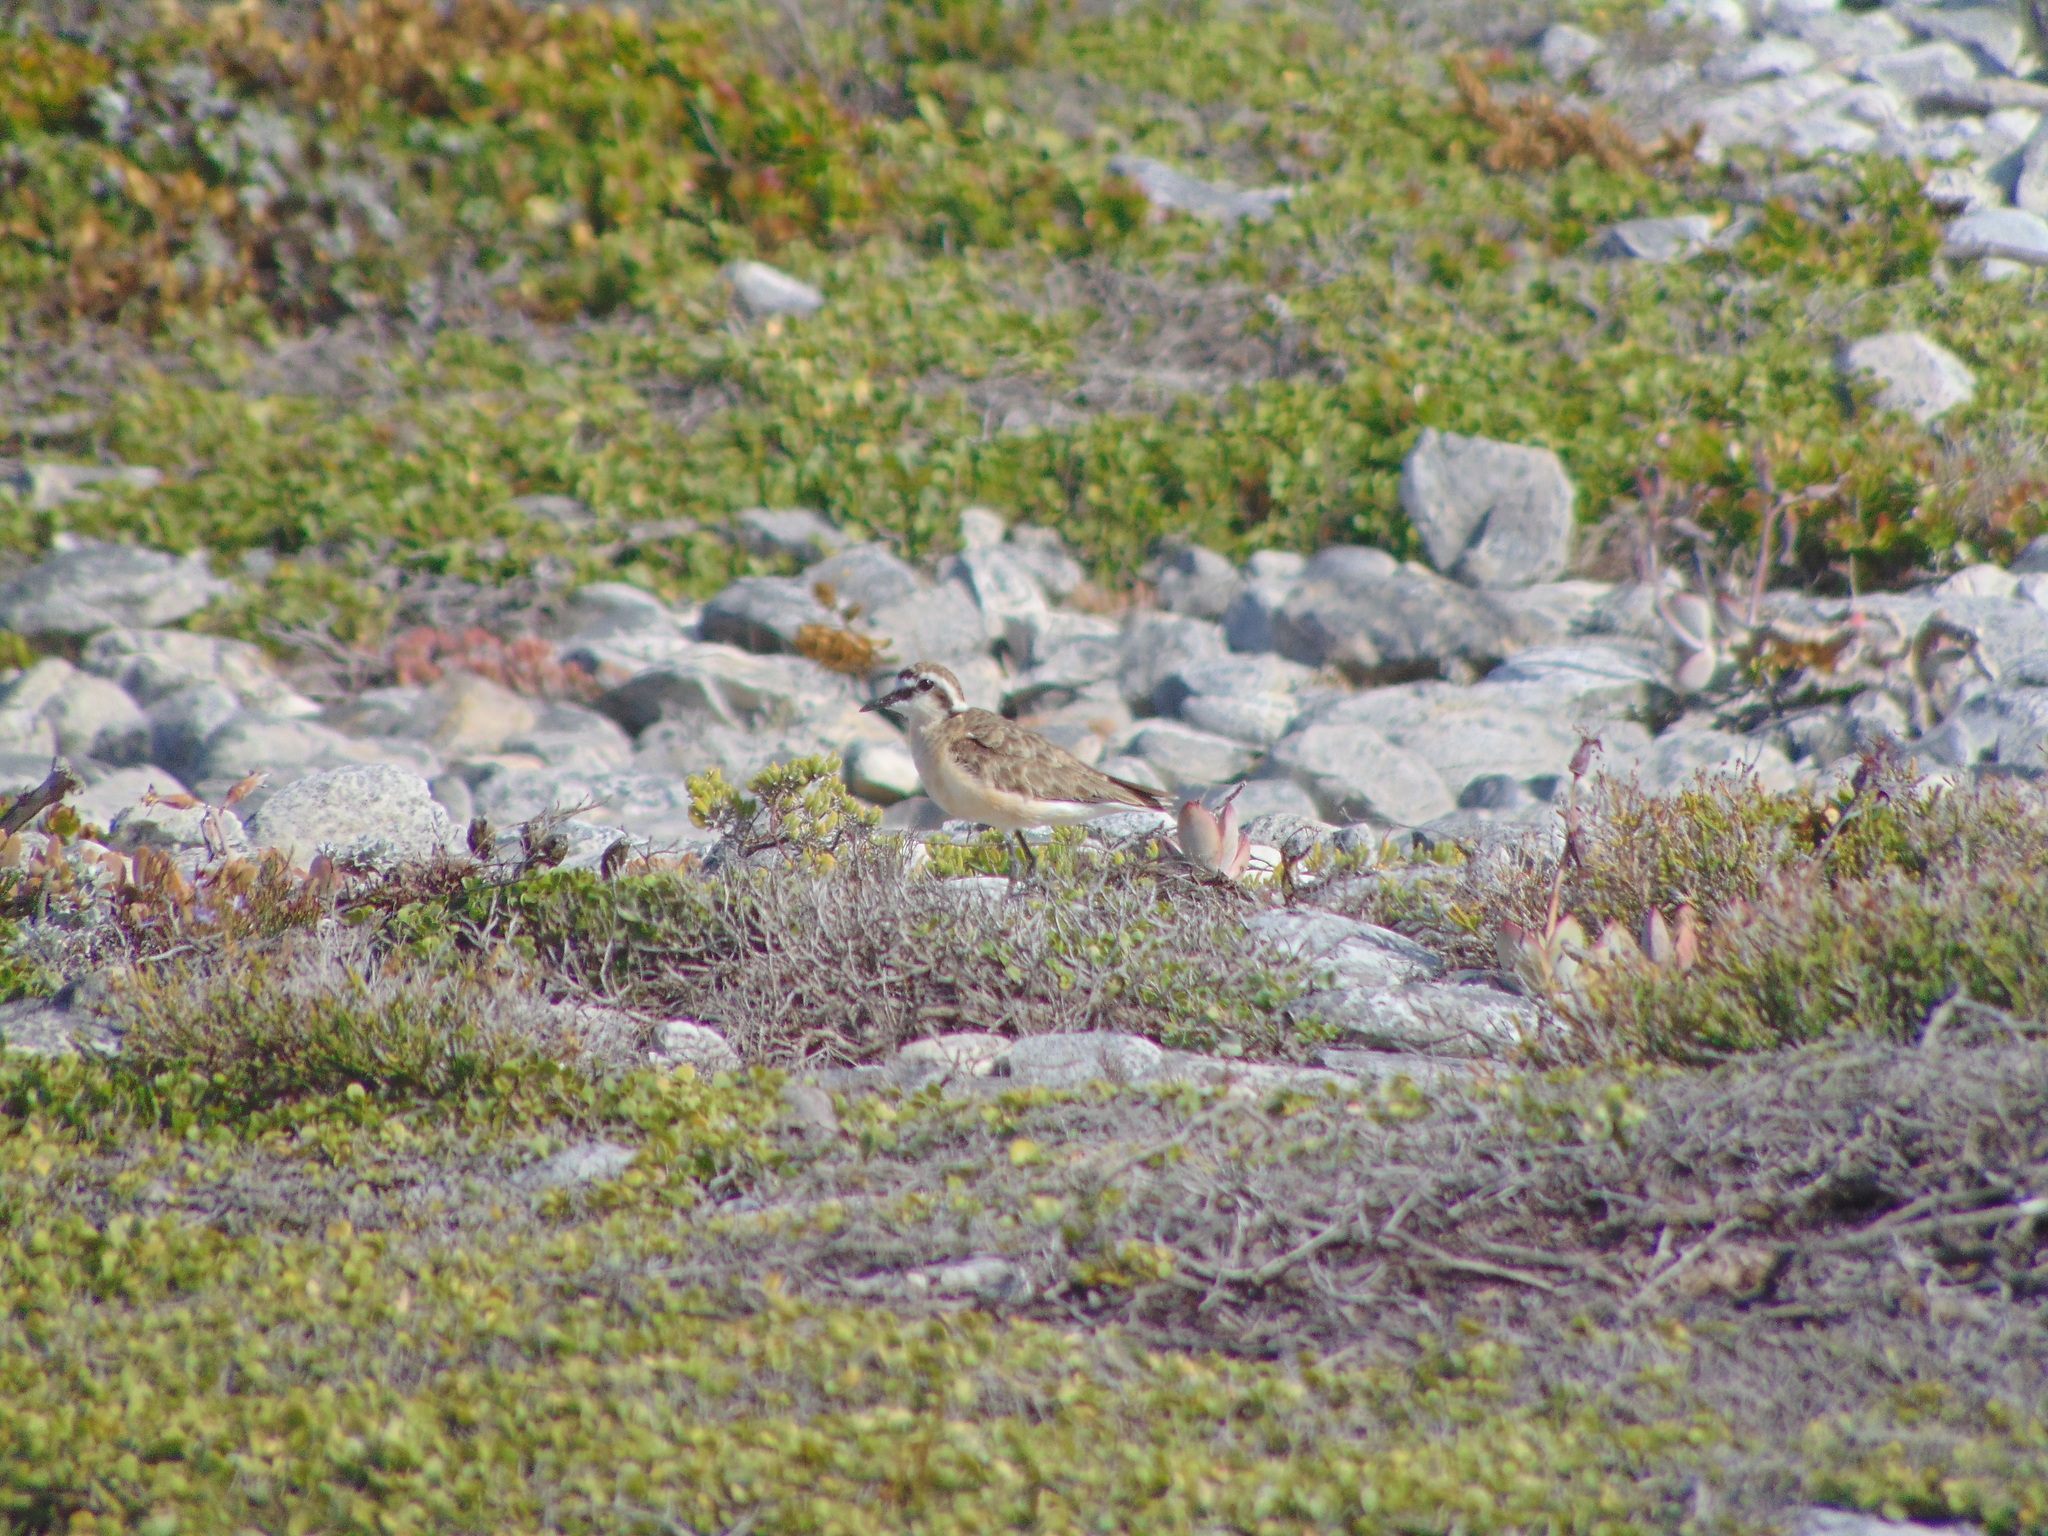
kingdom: Animalia
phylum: Chordata
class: Aves
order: Charadriiformes
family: Charadriidae
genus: Anarhynchus
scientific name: Anarhynchus
